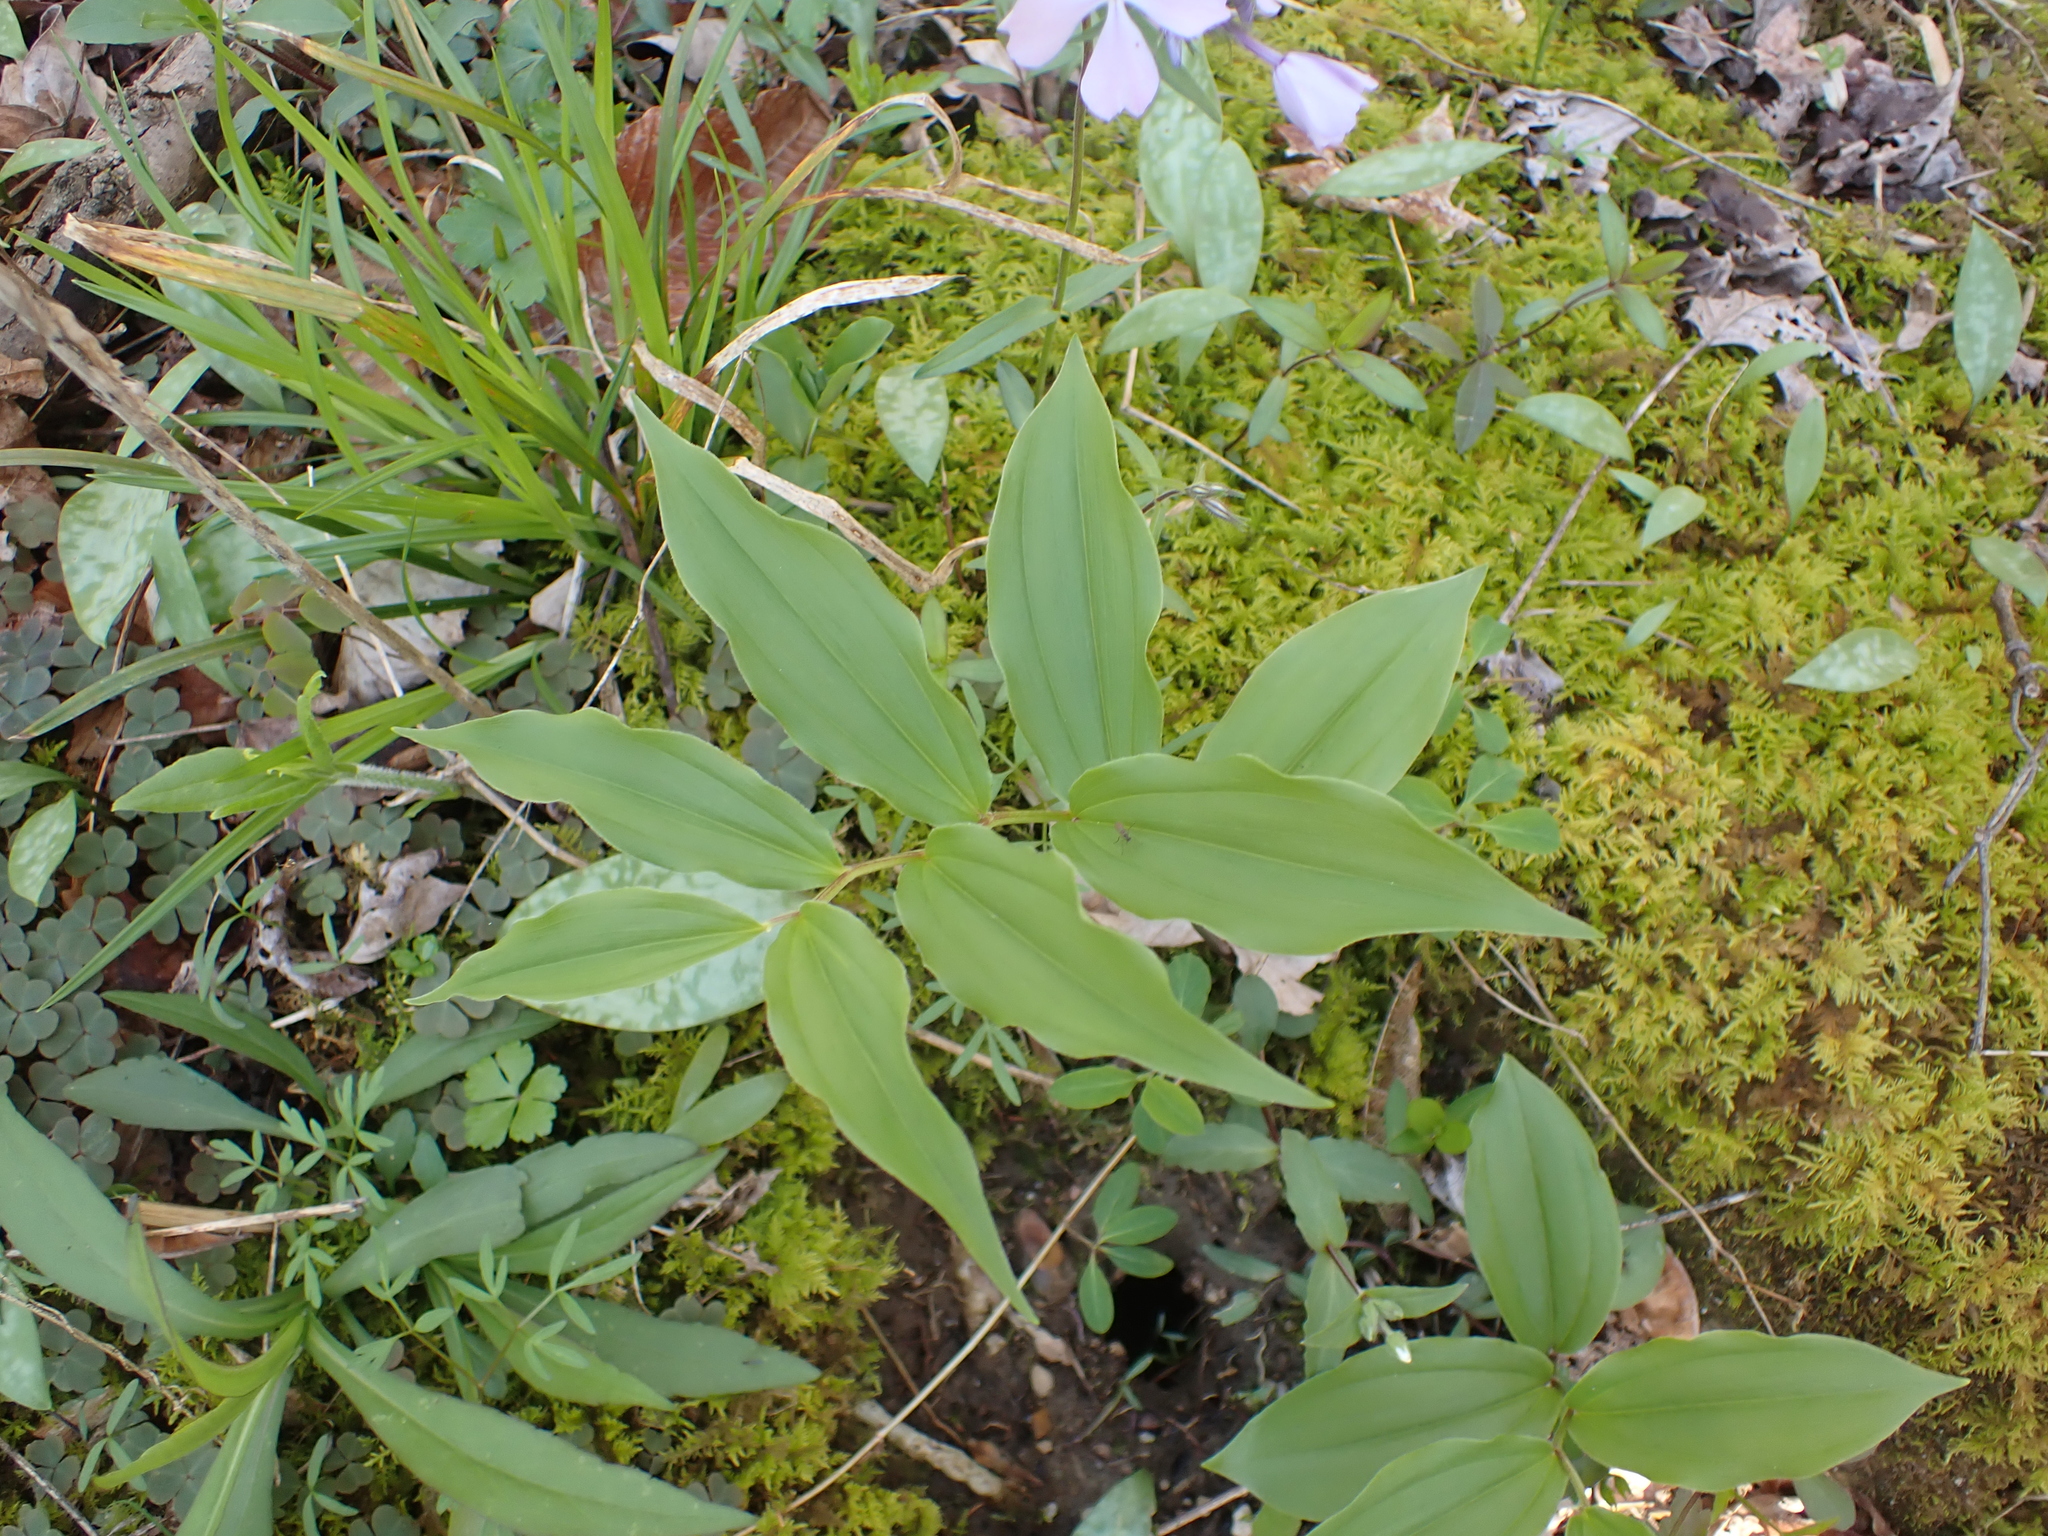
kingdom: Plantae
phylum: Tracheophyta
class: Liliopsida
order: Asparagales
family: Asparagaceae
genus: Maianthemum
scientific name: Maianthemum racemosum
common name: False spikenard
